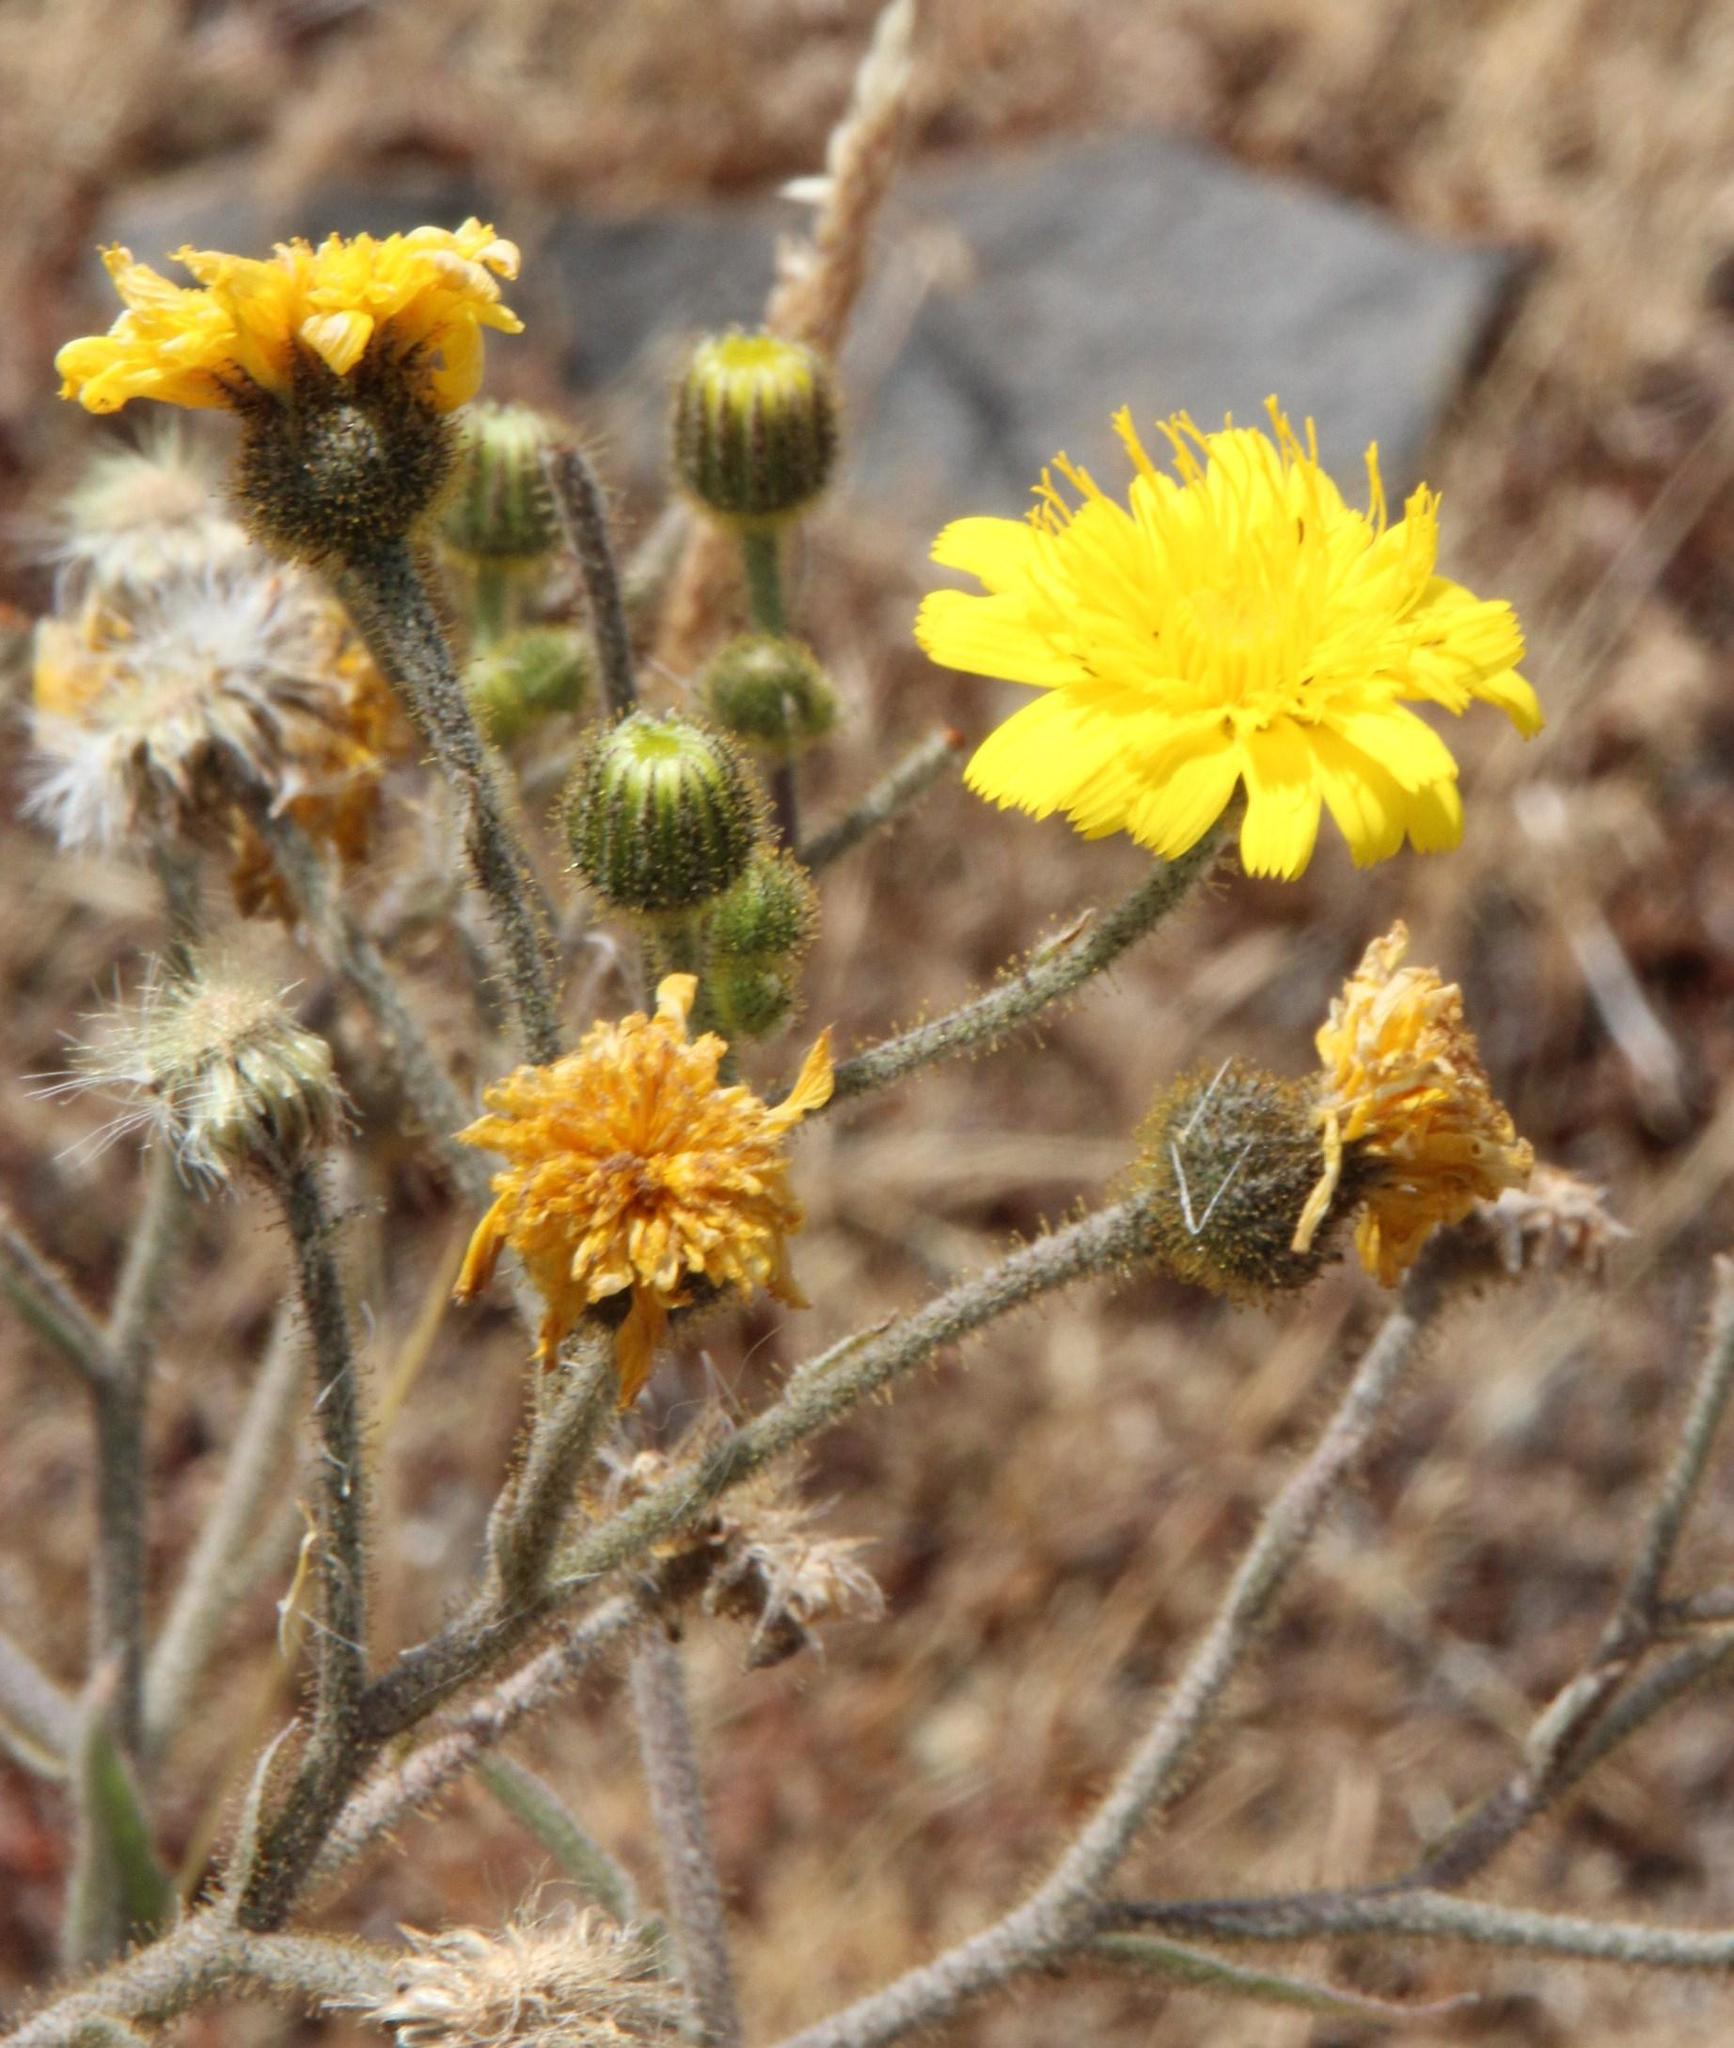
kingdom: Plantae
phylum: Tracheophyta
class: Magnoliopsida
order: Asterales
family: Asteraceae
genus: Andryala
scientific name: Andryala glandulosa
